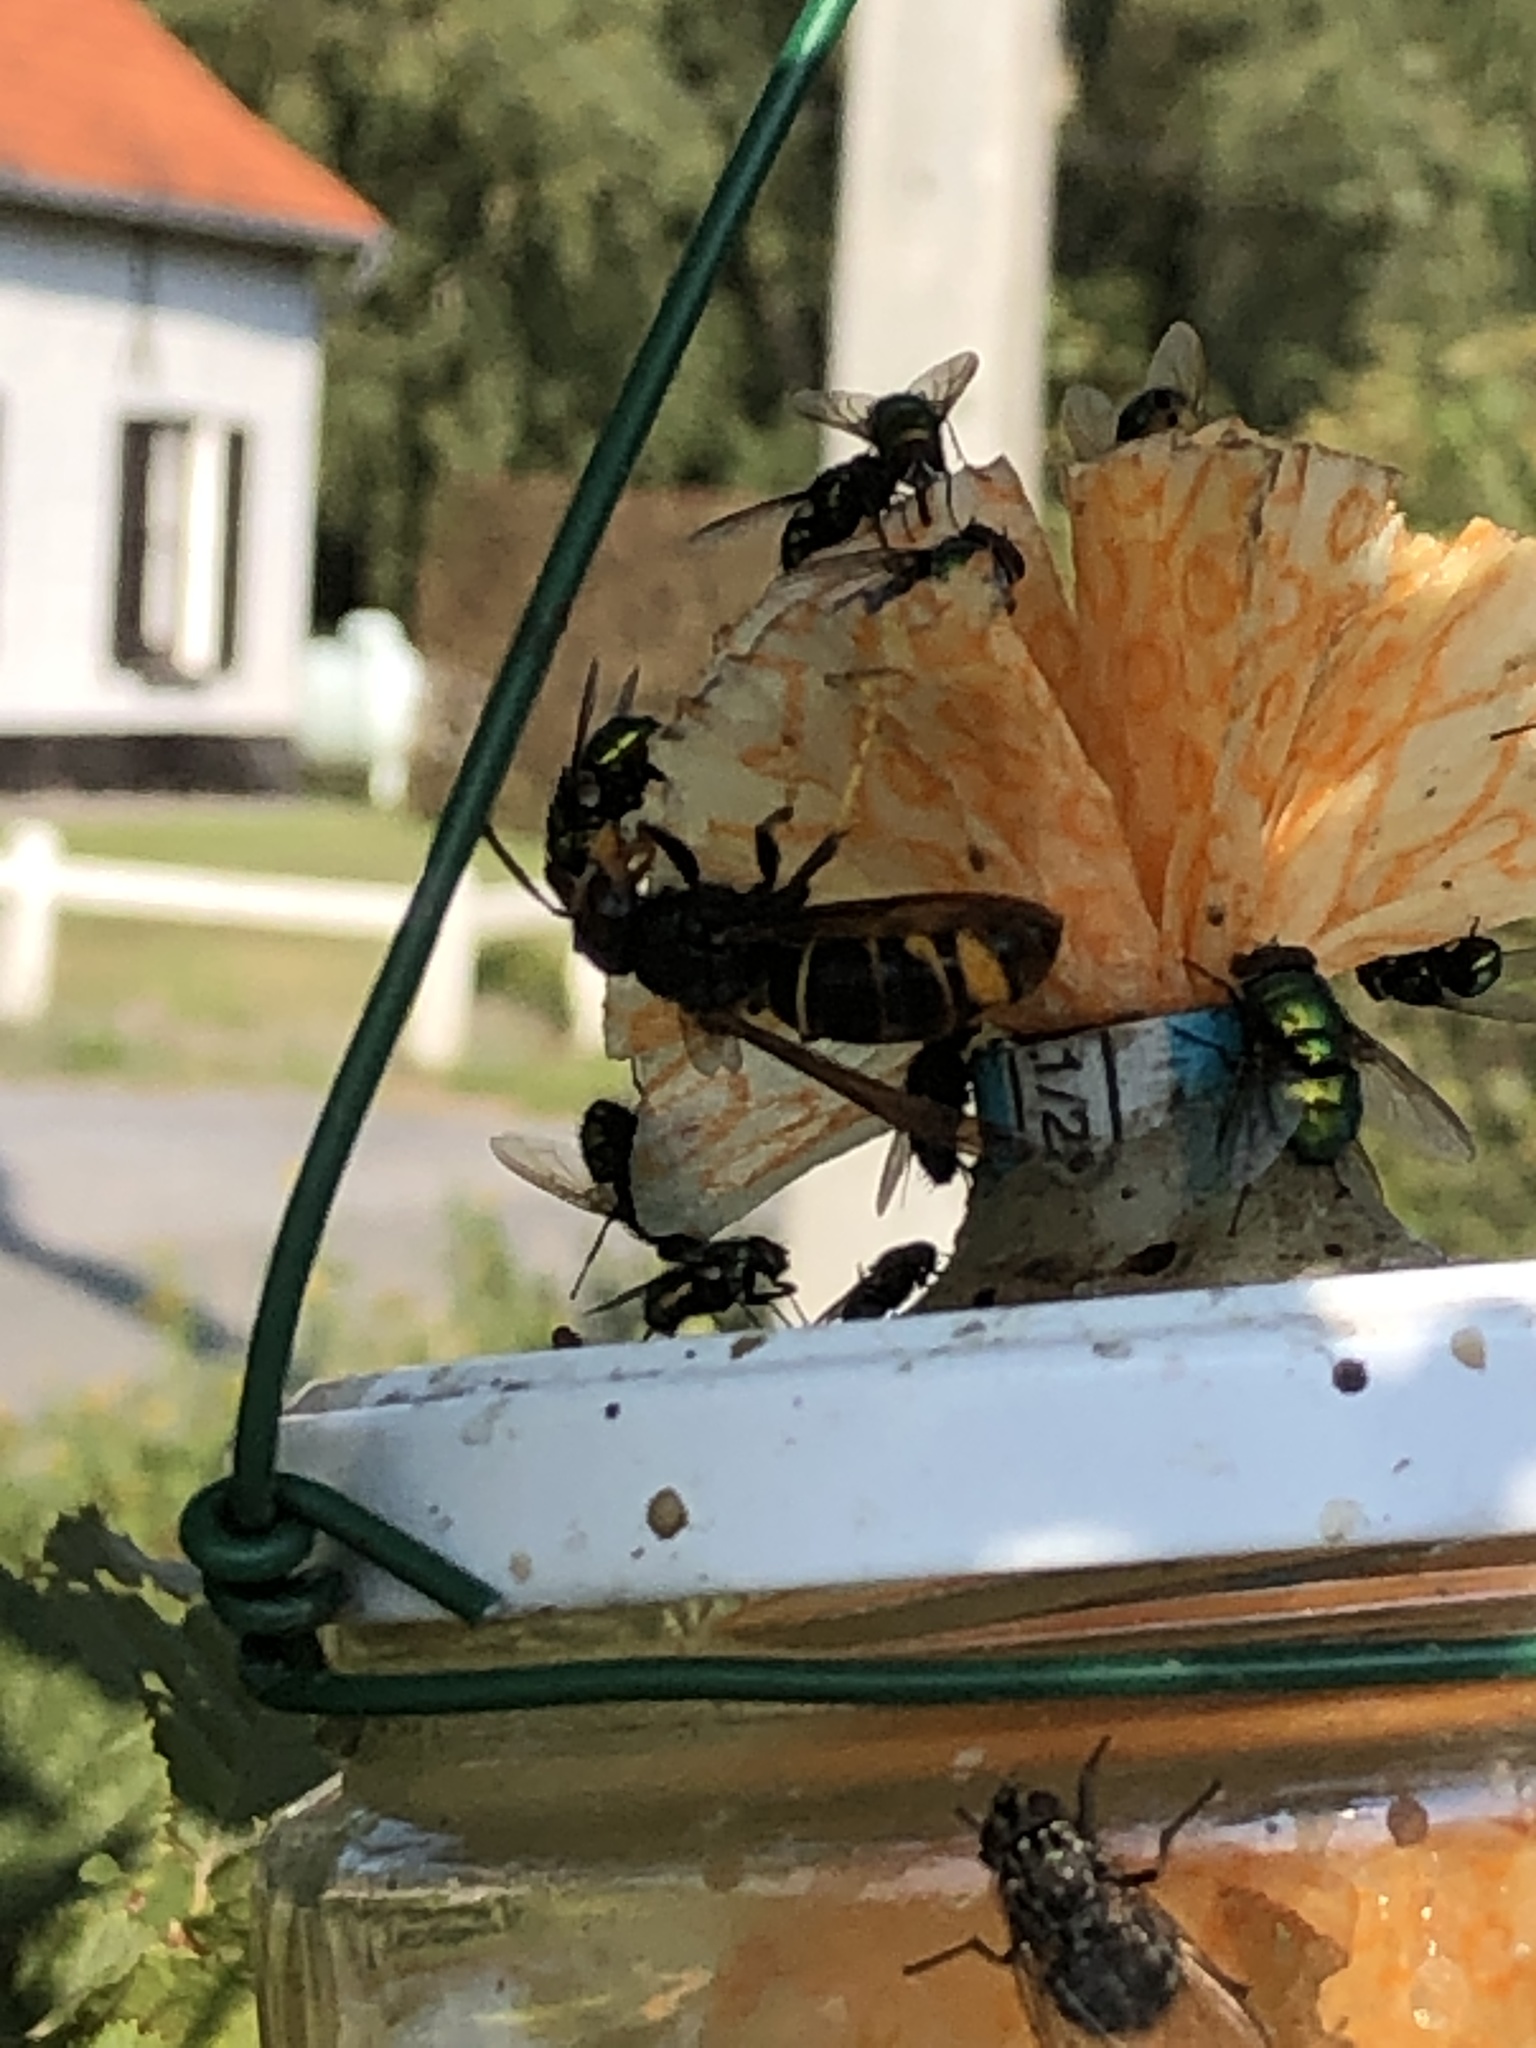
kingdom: Animalia
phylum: Arthropoda
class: Insecta
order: Hymenoptera
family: Vespidae
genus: Vespa
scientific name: Vespa velutina
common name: Asian hornet
